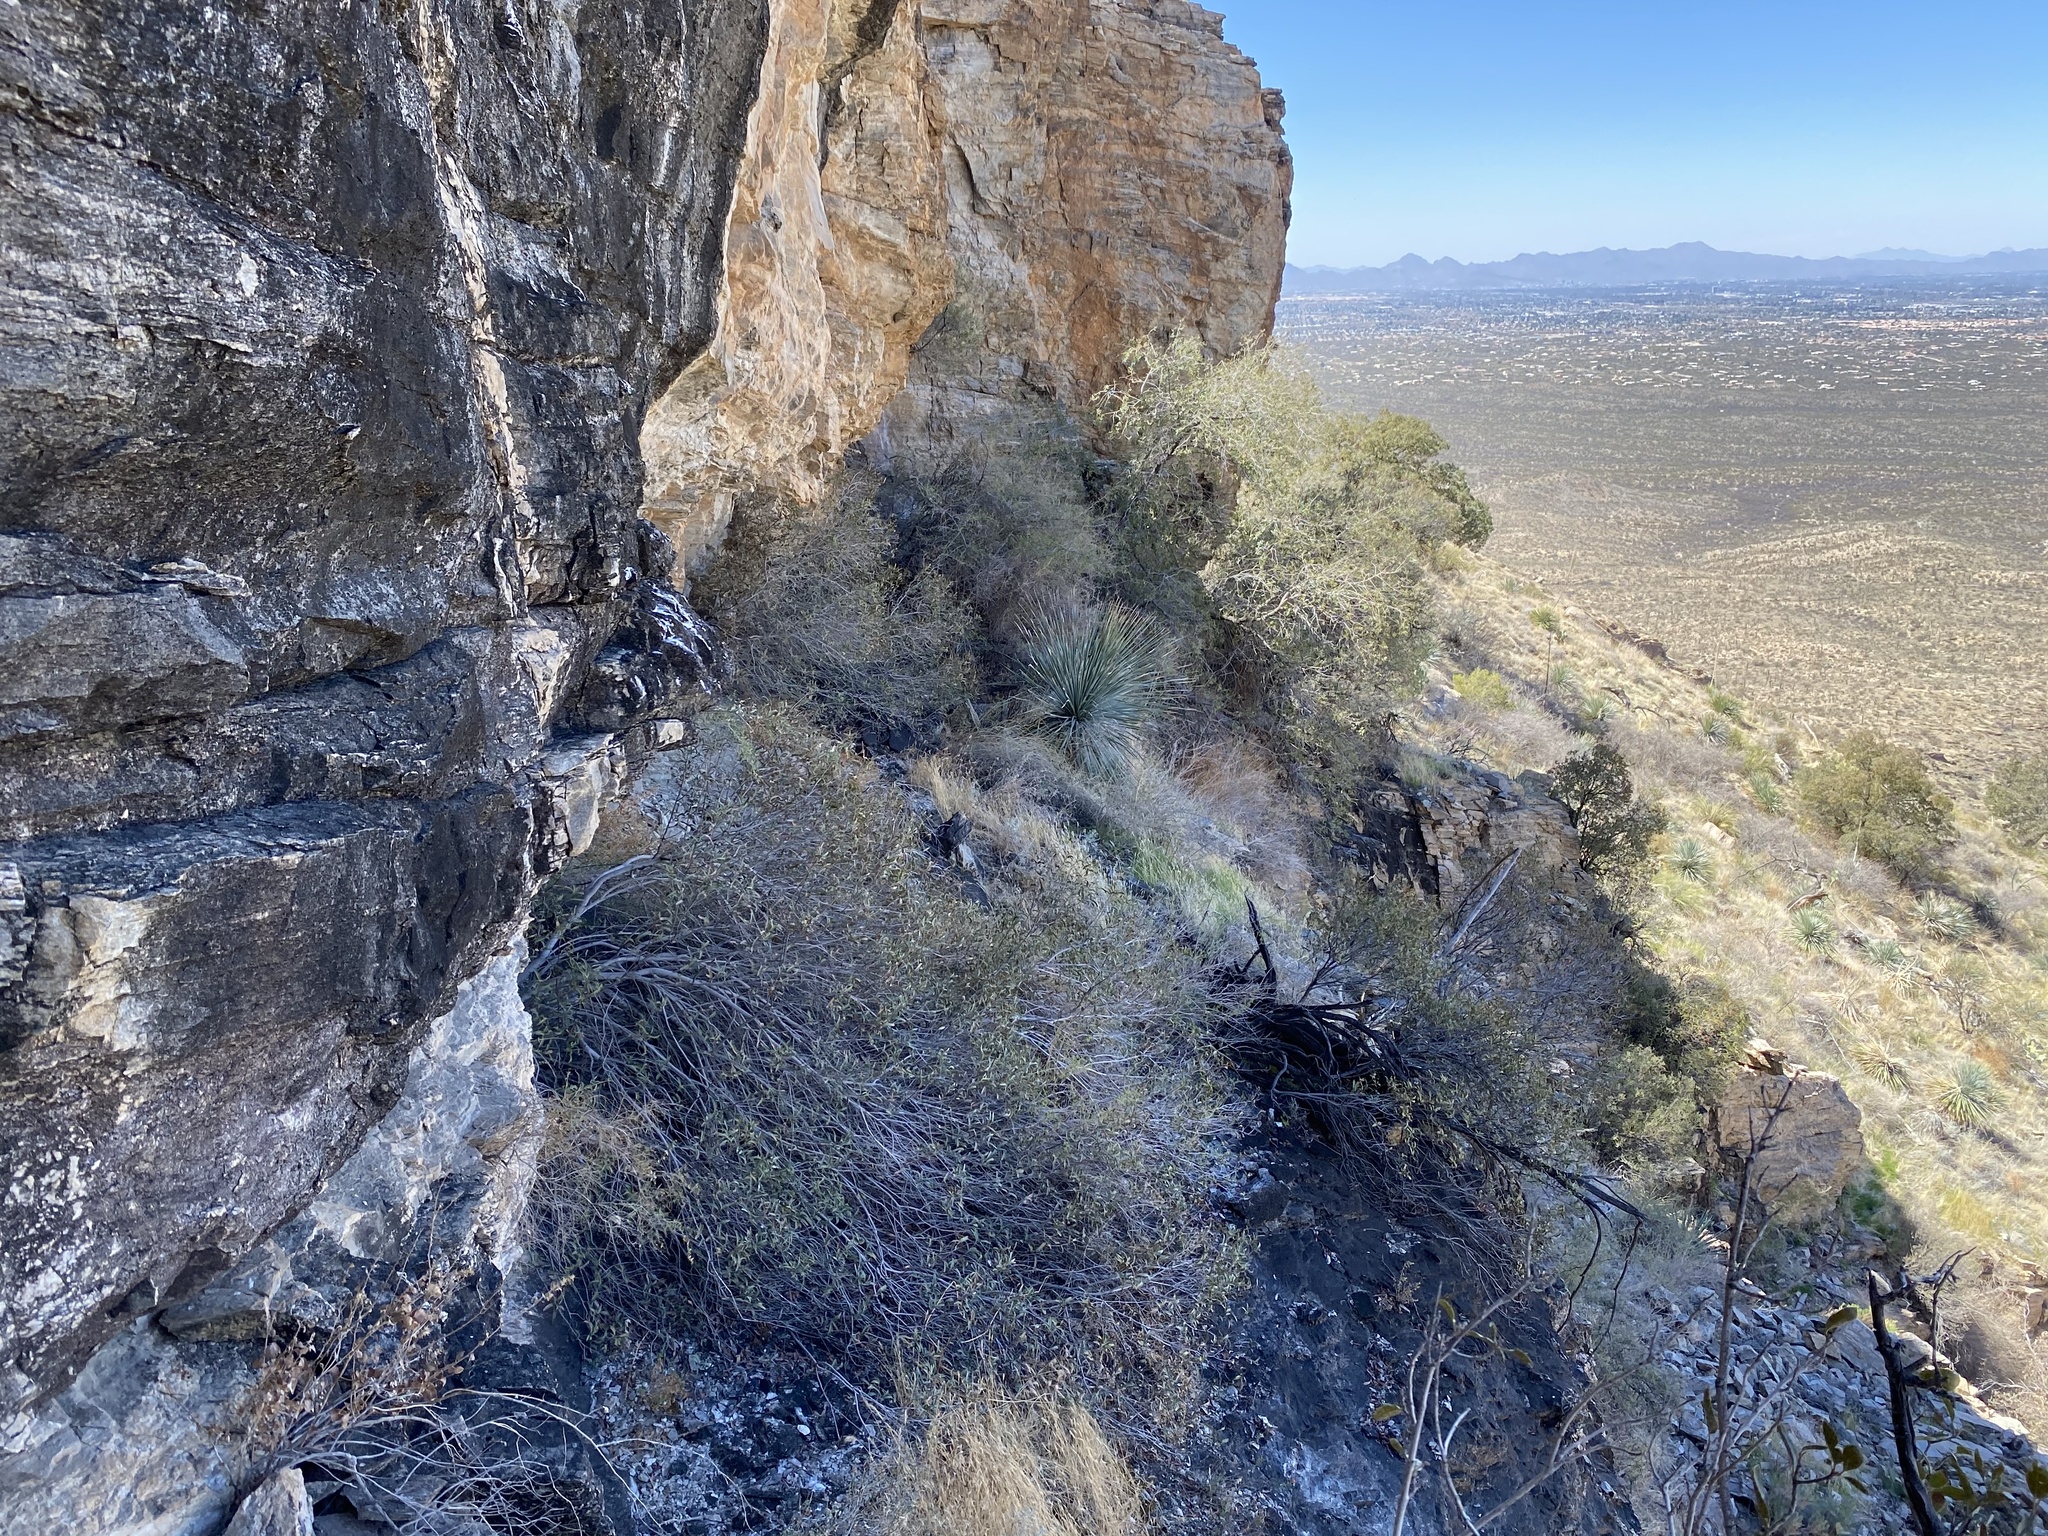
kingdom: Plantae
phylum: Tracheophyta
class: Magnoliopsida
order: Lamiales
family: Orobanchaceae
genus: Castilleja
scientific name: Castilleja tenuiflora
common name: Santa catalina indian paintbrush
